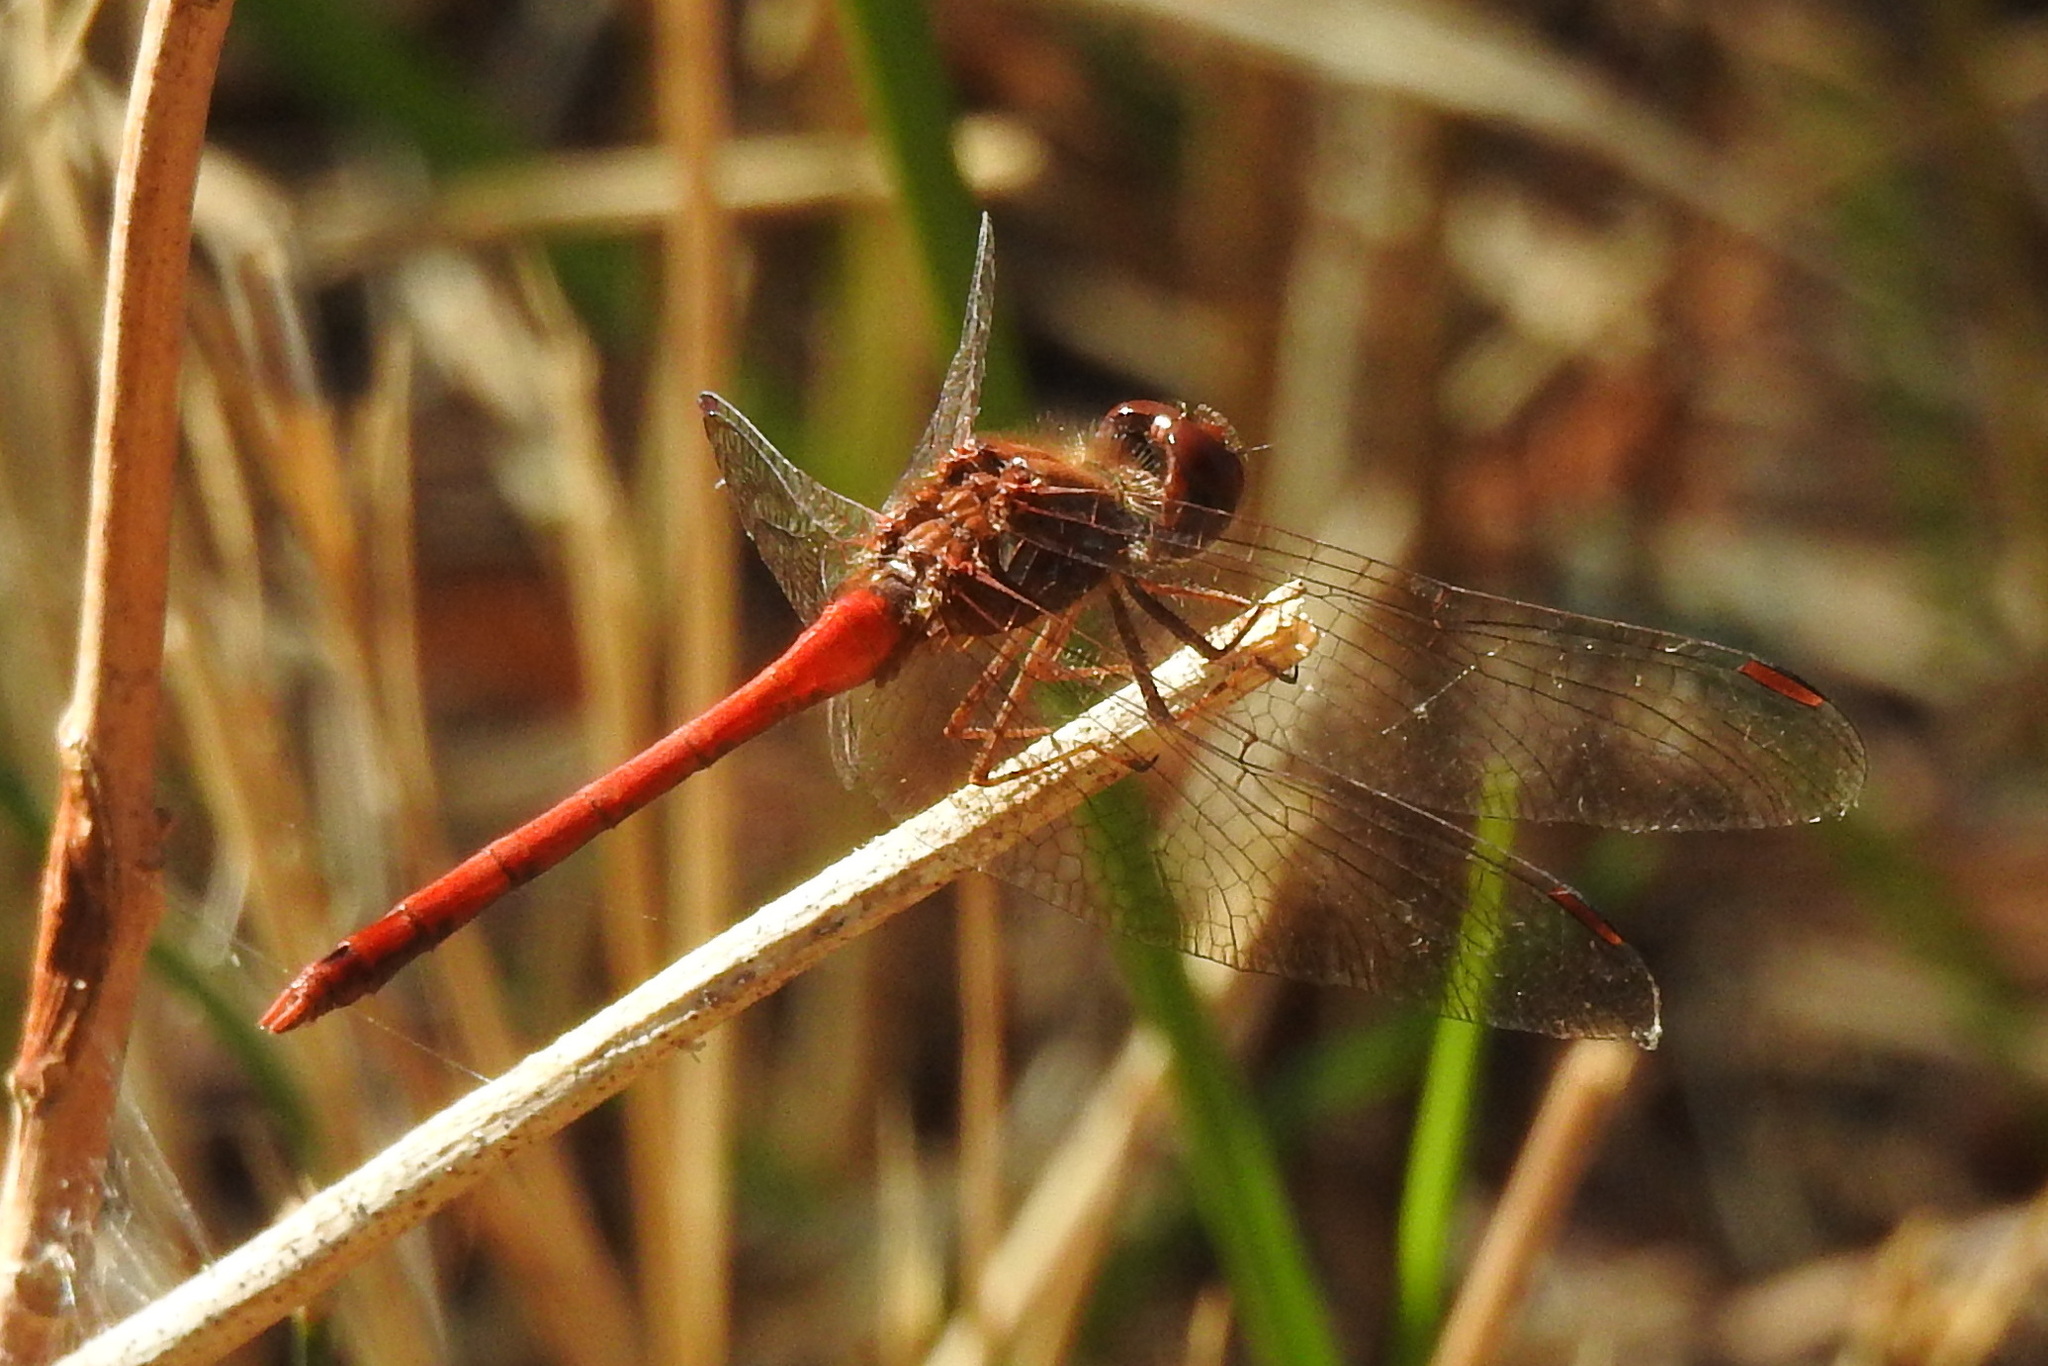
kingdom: Animalia
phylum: Arthropoda
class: Insecta
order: Odonata
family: Libellulidae
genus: Sympetrum
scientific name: Sympetrum vicinum
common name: Autumn meadowhawk
